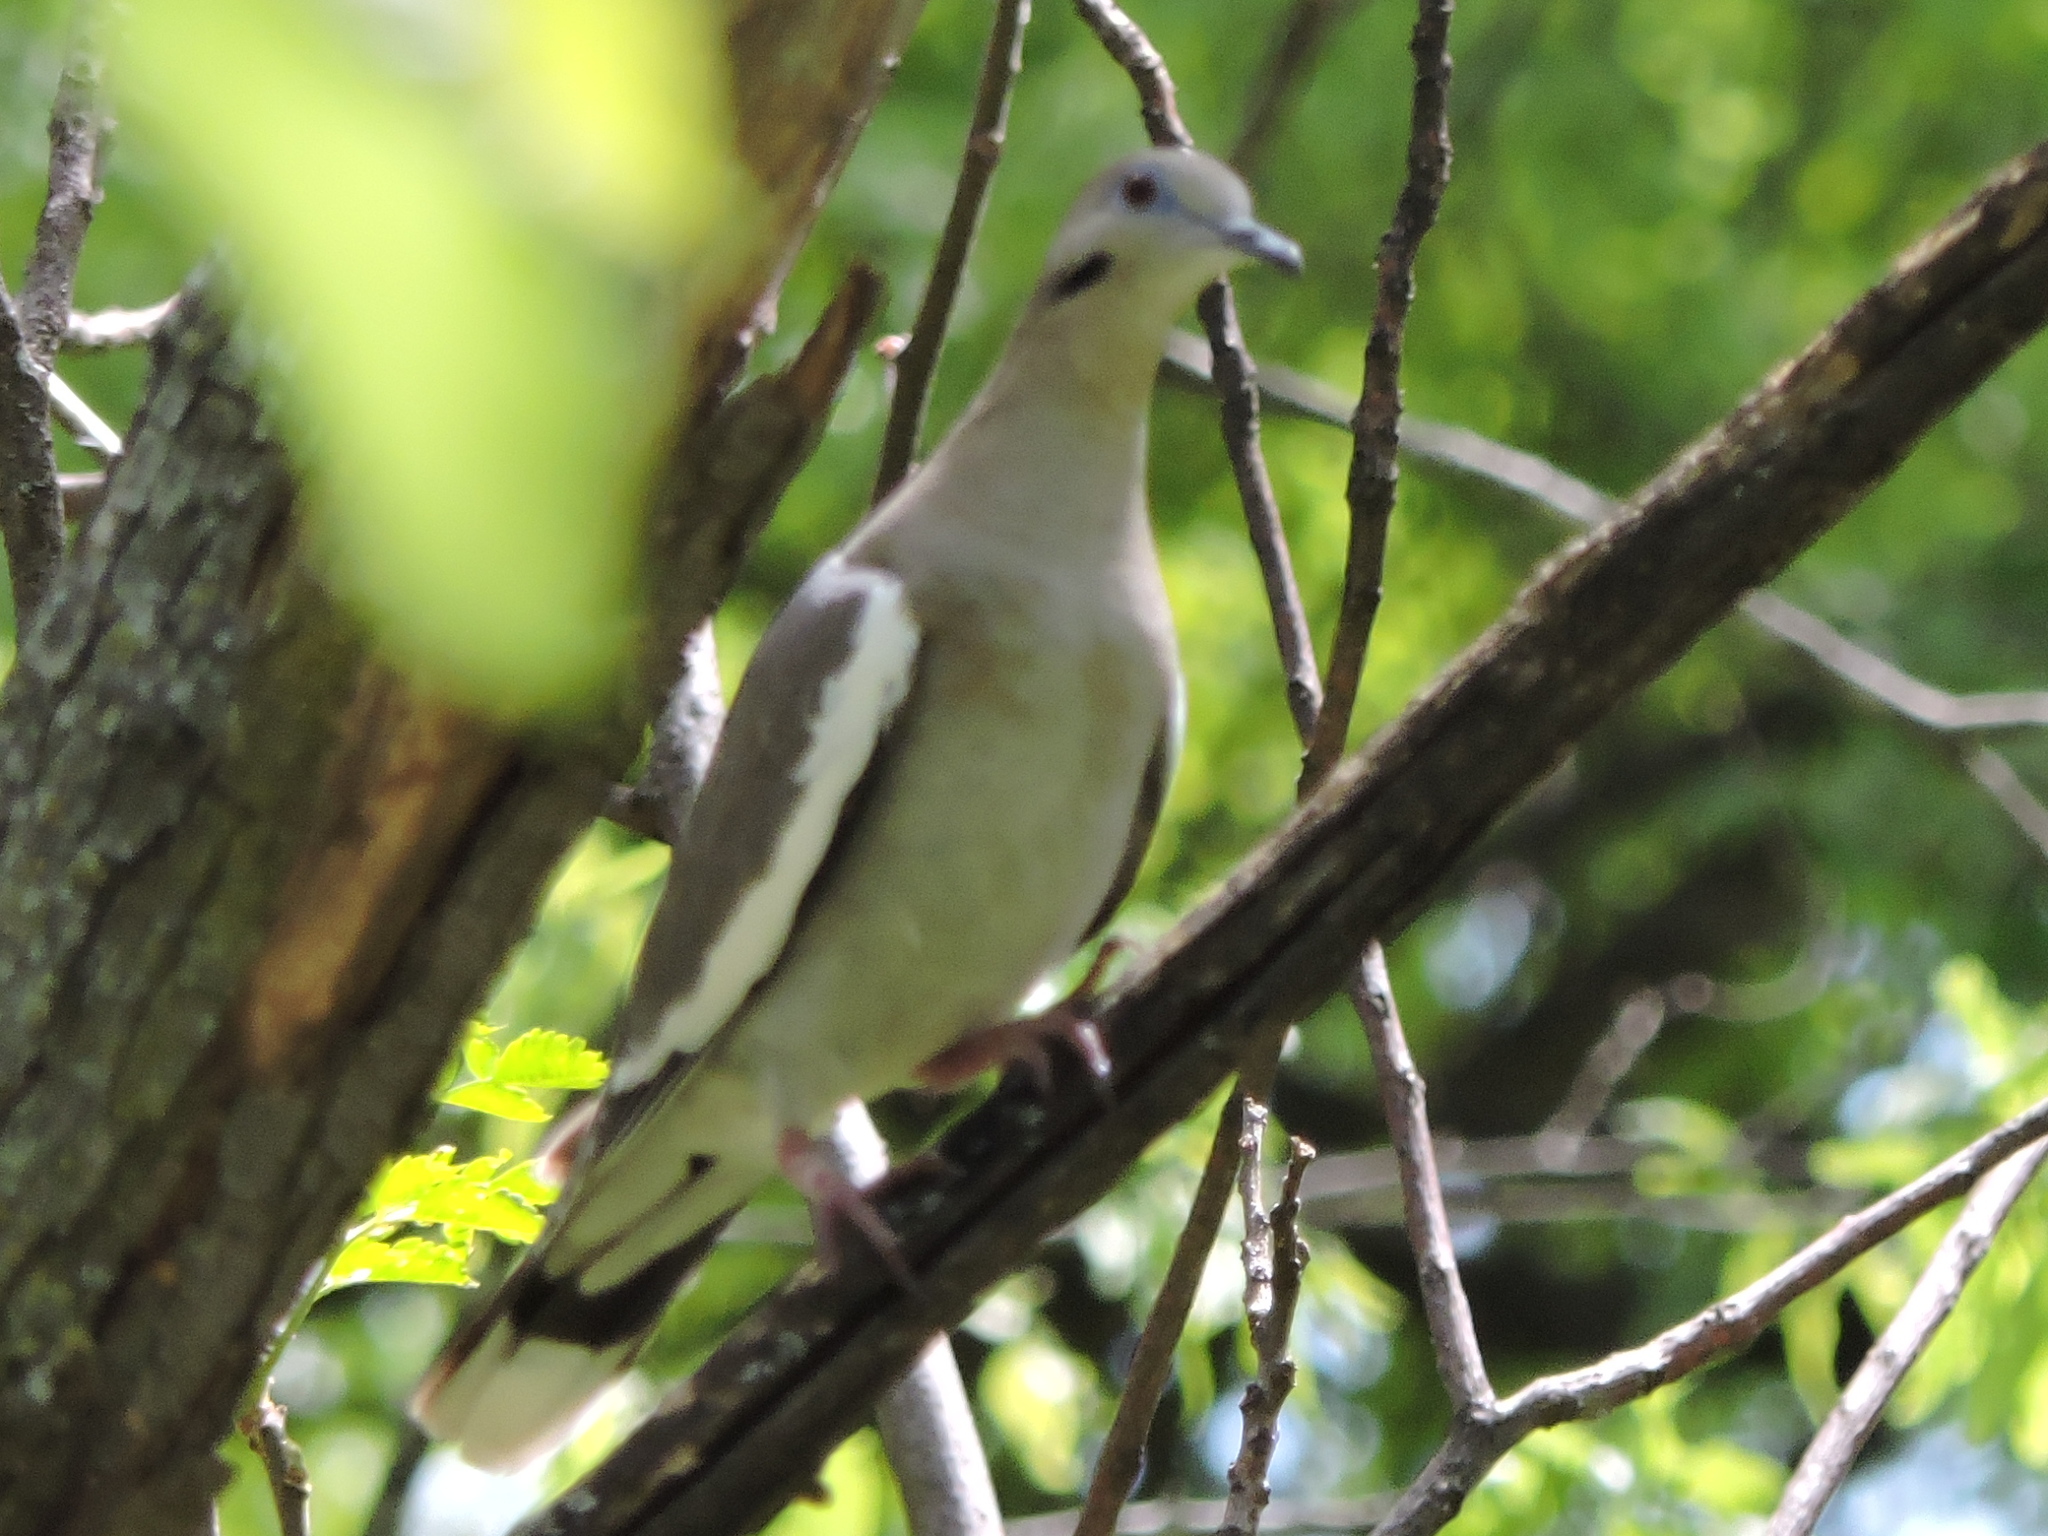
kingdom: Animalia
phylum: Chordata
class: Aves
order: Columbiformes
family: Columbidae
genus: Zenaida
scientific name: Zenaida asiatica
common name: White-winged dove
